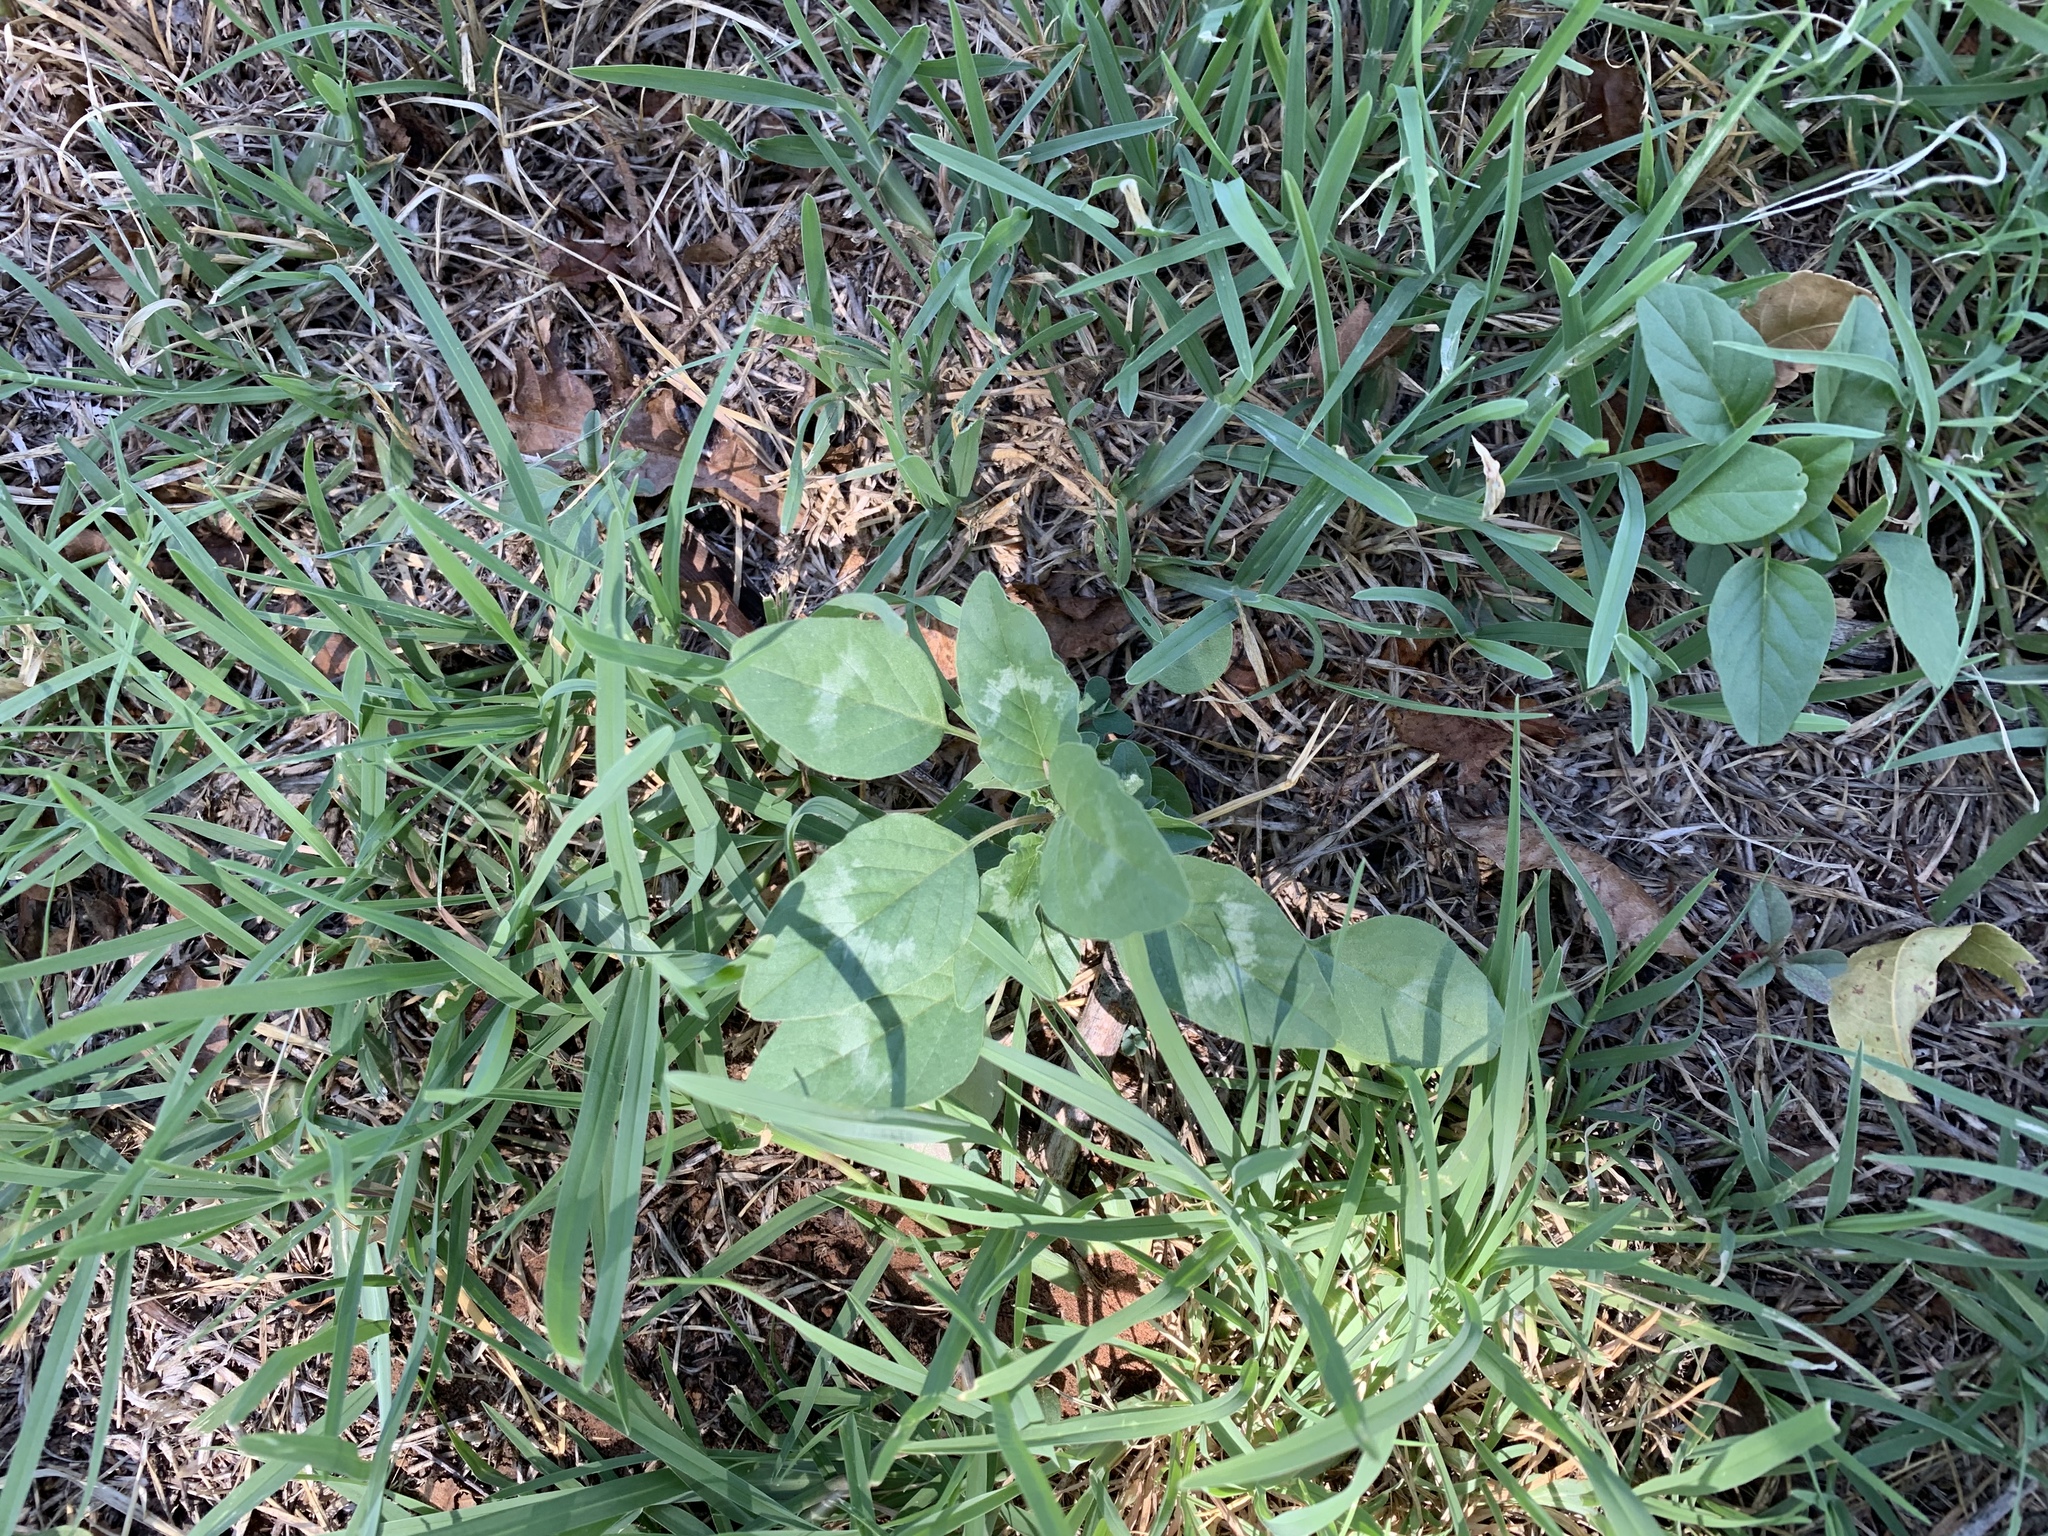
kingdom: Plantae
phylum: Tracheophyta
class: Magnoliopsida
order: Caryophyllales
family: Amaranthaceae
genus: Amaranthus
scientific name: Amaranthus palmeri
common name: Dioecious amaranth
